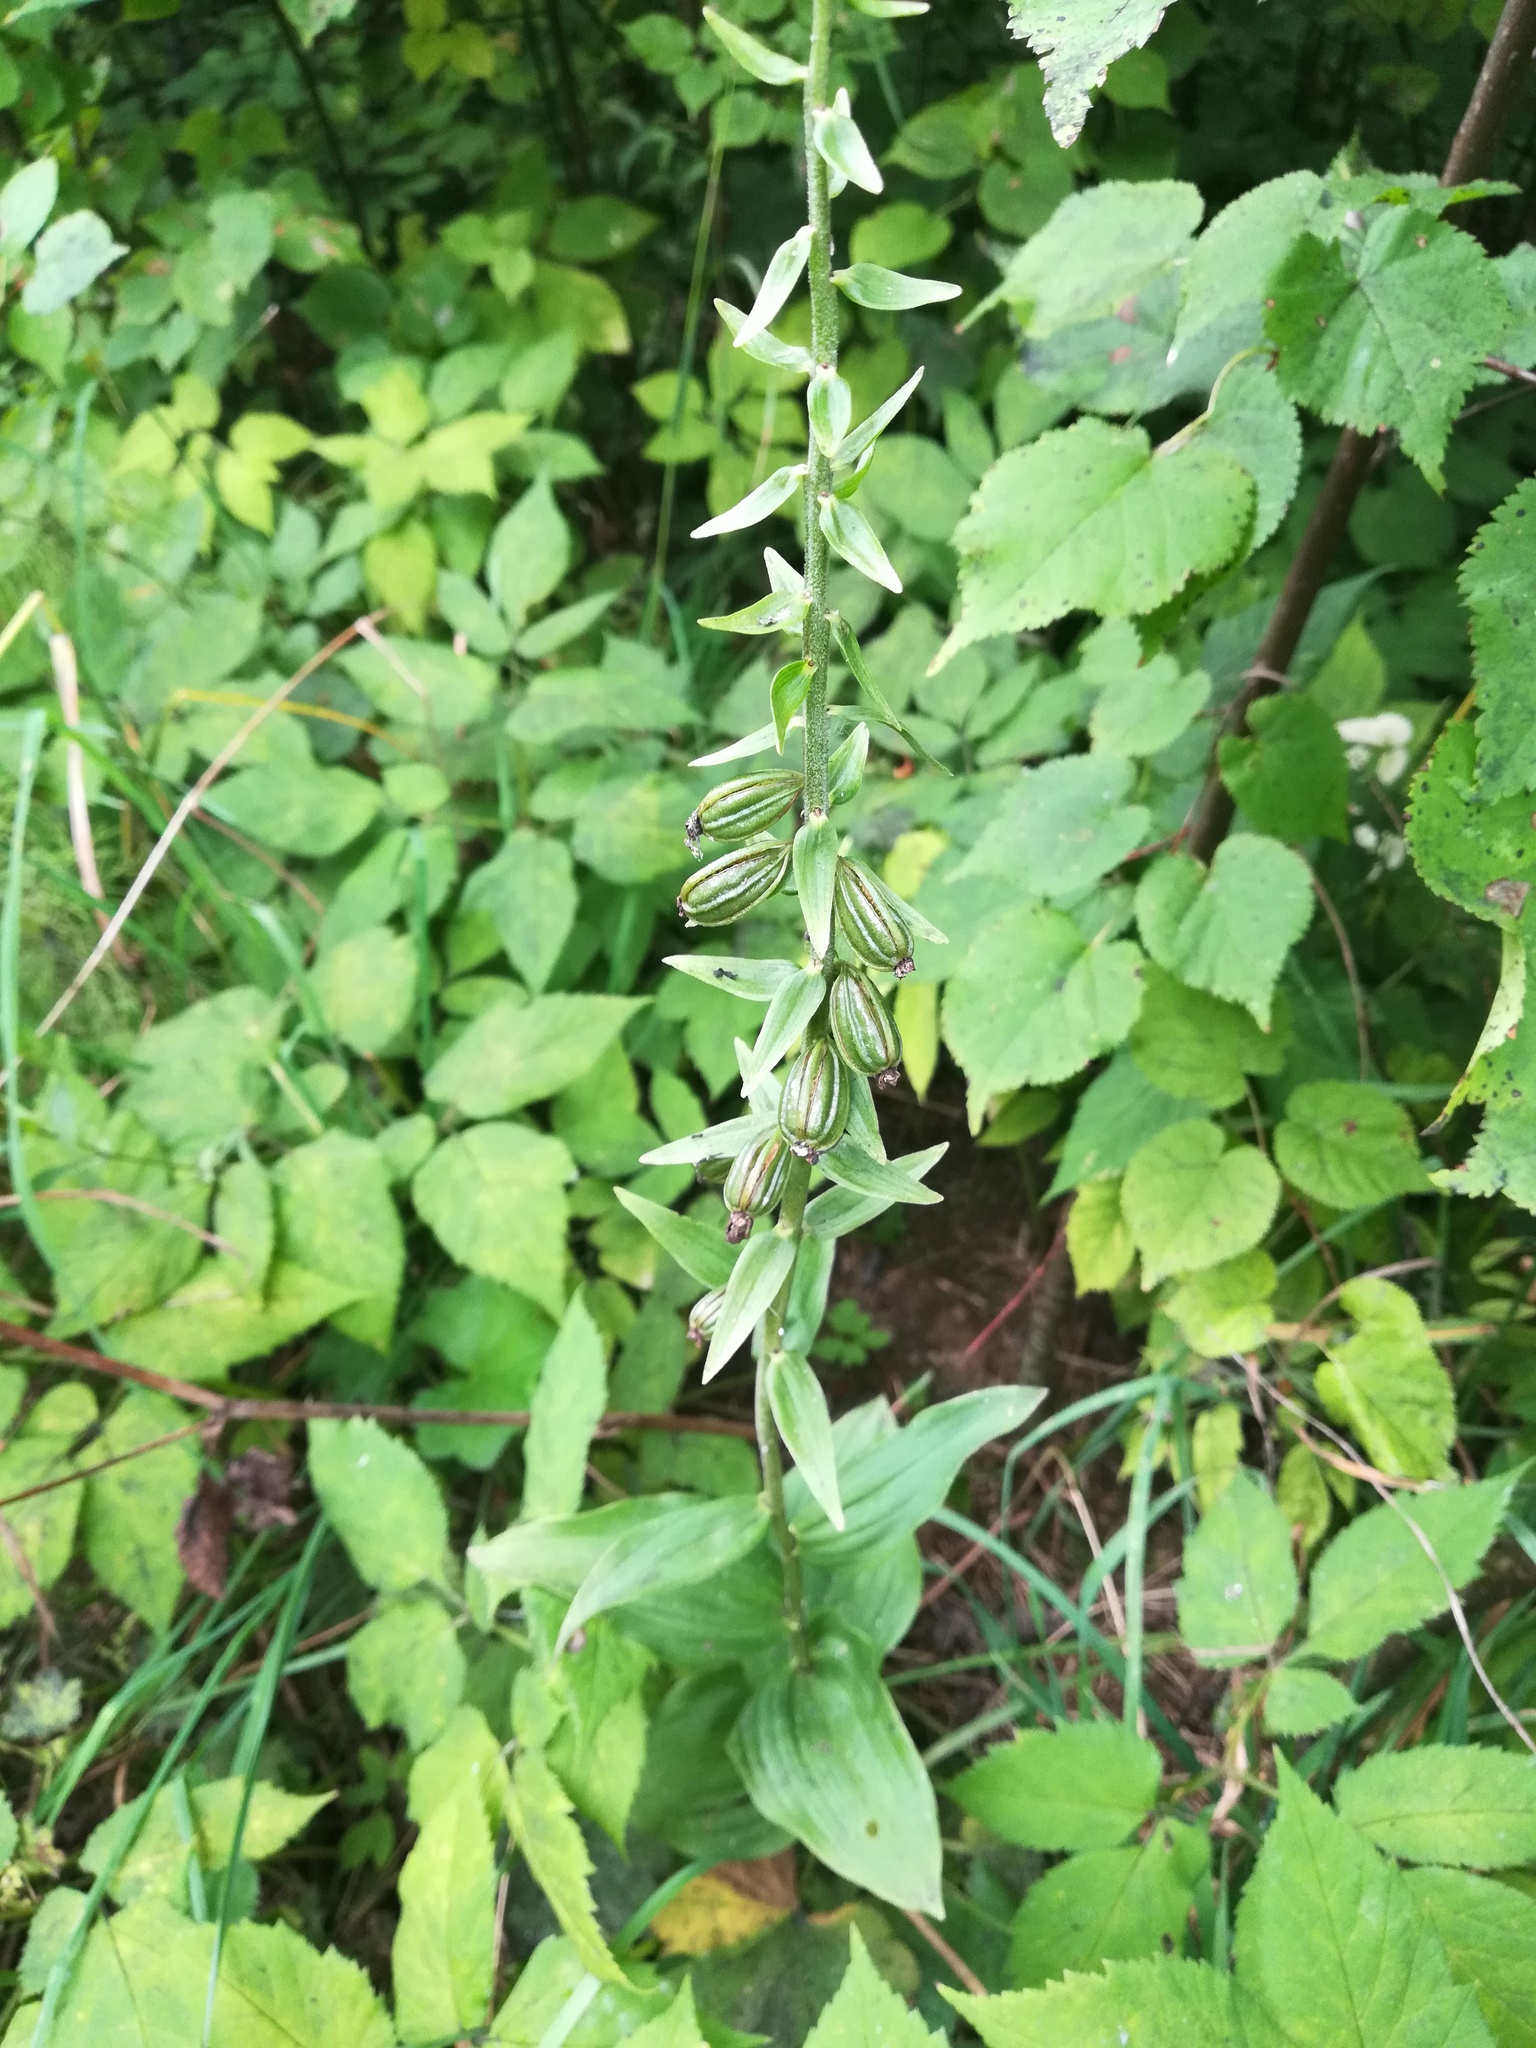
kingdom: Plantae
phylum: Tracheophyta
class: Liliopsida
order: Asparagales
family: Orchidaceae
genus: Epipactis
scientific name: Epipactis helleborine
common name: Broad-leaved helleborine
